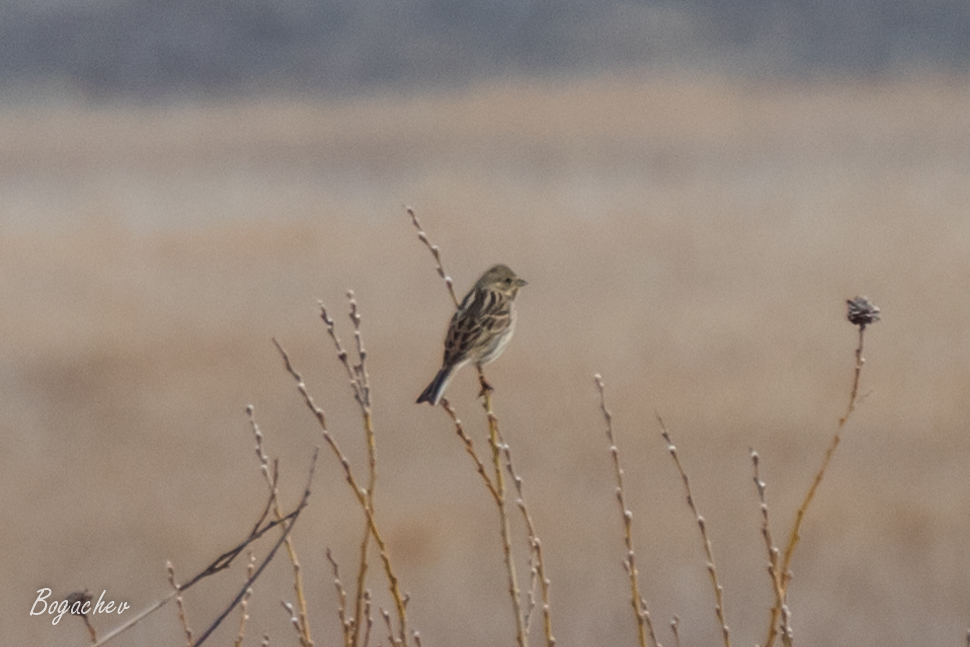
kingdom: Animalia
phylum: Chordata
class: Aves
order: Passeriformes
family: Emberizidae
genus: Emberiza
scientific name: Emberiza schoeniclus
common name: Reed bunting
